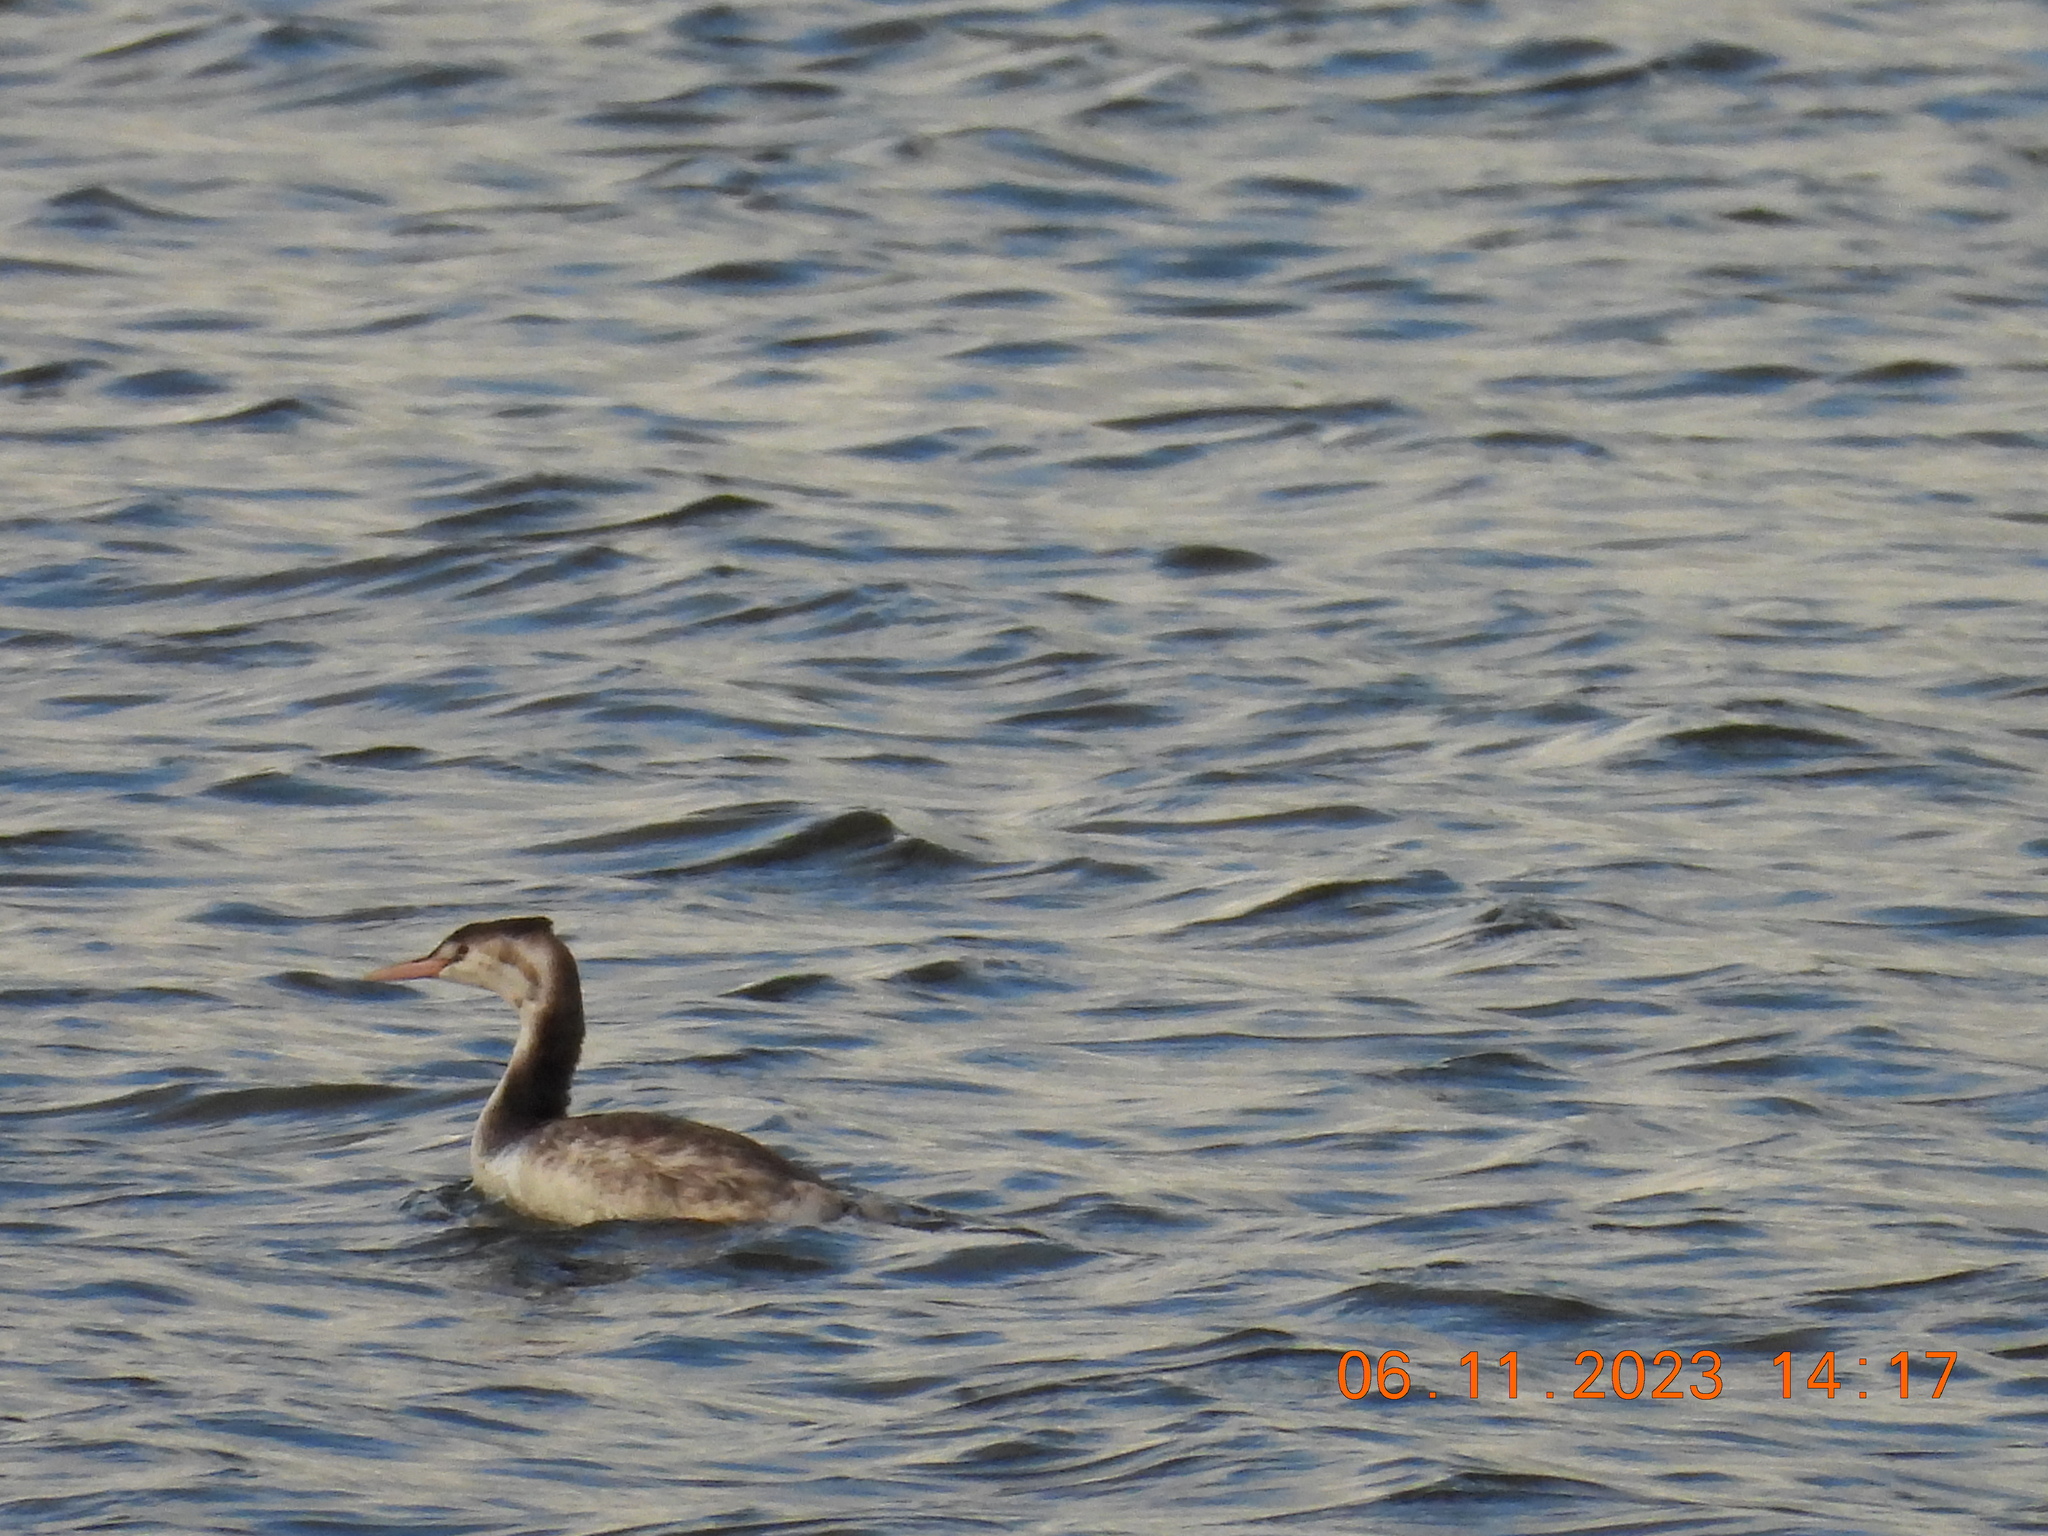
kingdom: Animalia
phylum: Chordata
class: Aves
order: Podicipediformes
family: Podicipedidae
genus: Podiceps
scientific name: Podiceps cristatus
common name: Great crested grebe
